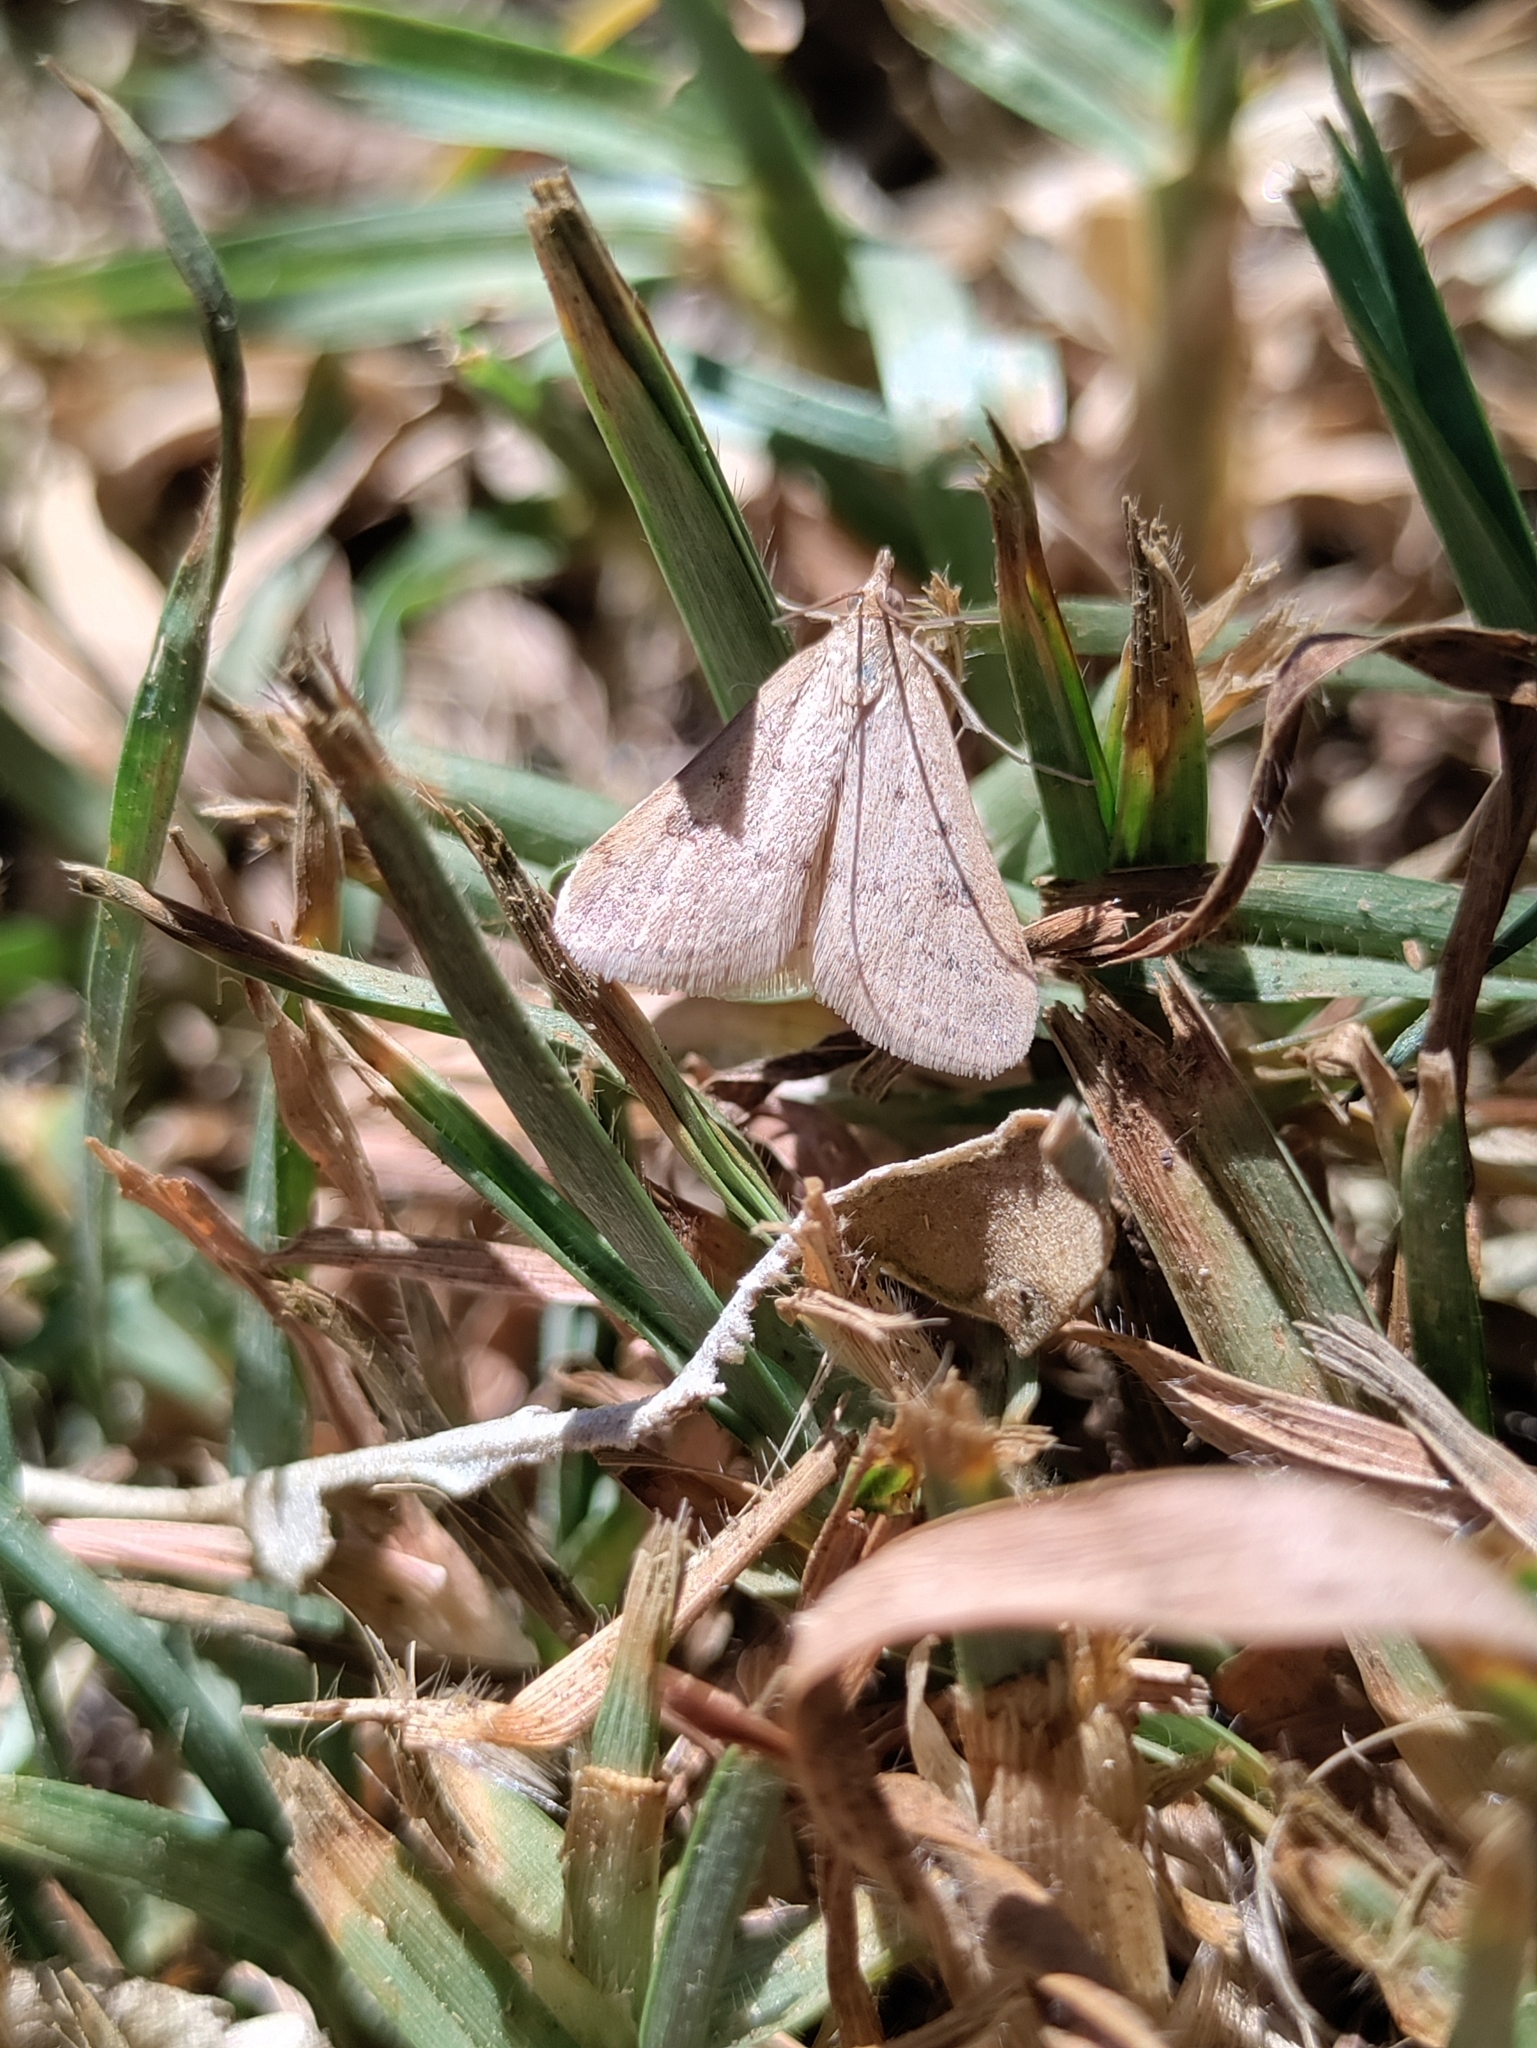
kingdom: Animalia
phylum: Arthropoda
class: Insecta
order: Lepidoptera
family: Crambidae
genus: Achyra
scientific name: Achyra rantalis
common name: Garden webworm
